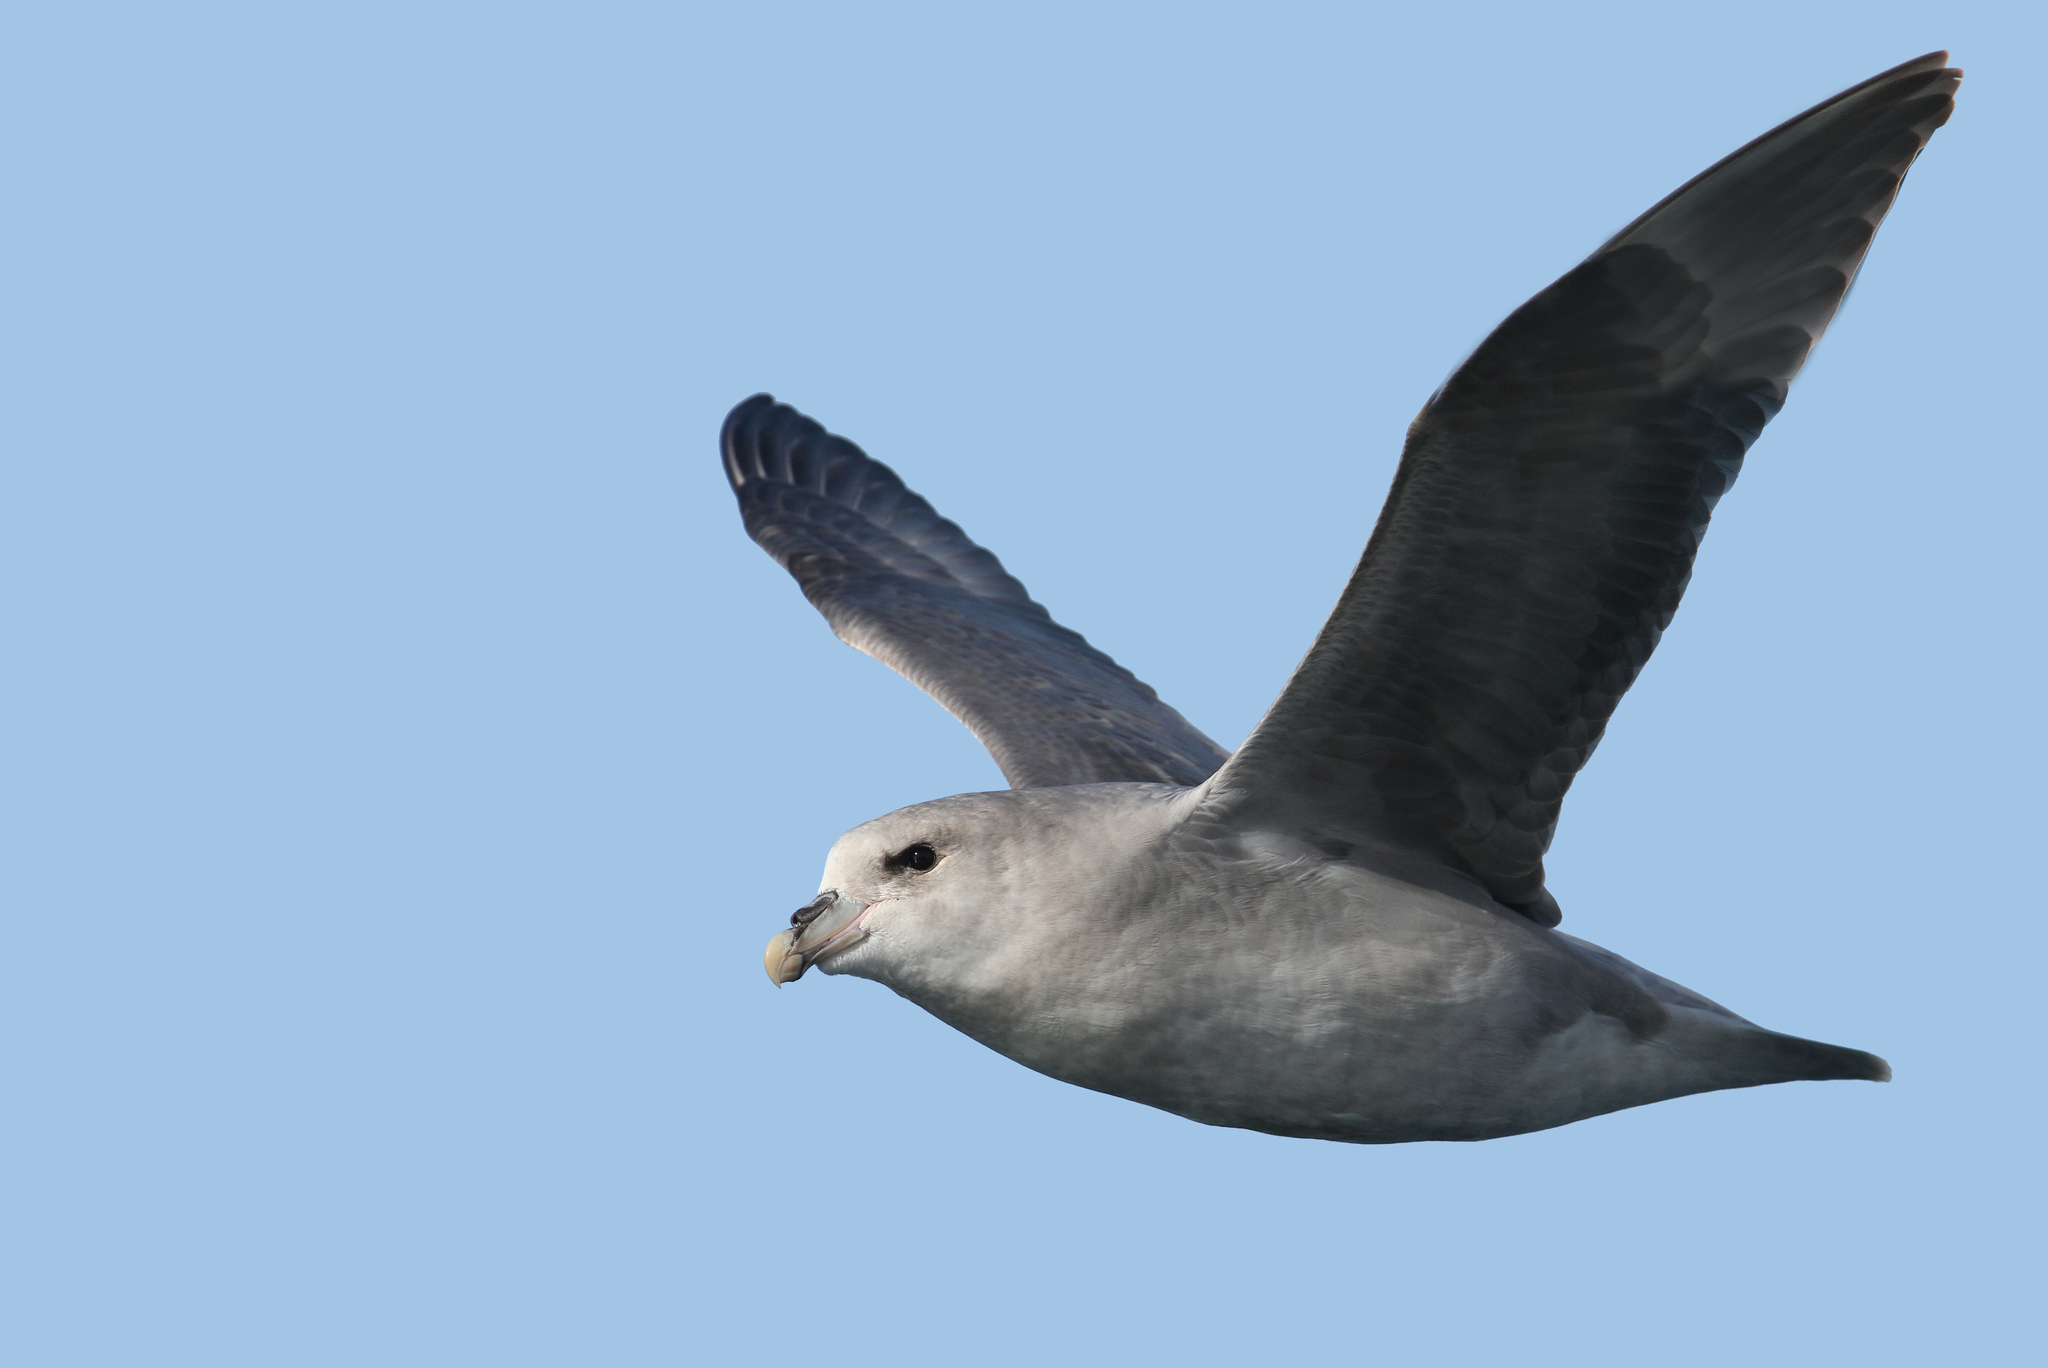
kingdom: Animalia
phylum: Chordata
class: Aves
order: Procellariiformes
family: Procellariidae
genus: Fulmarus
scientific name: Fulmarus glacialis
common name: Northern fulmar
